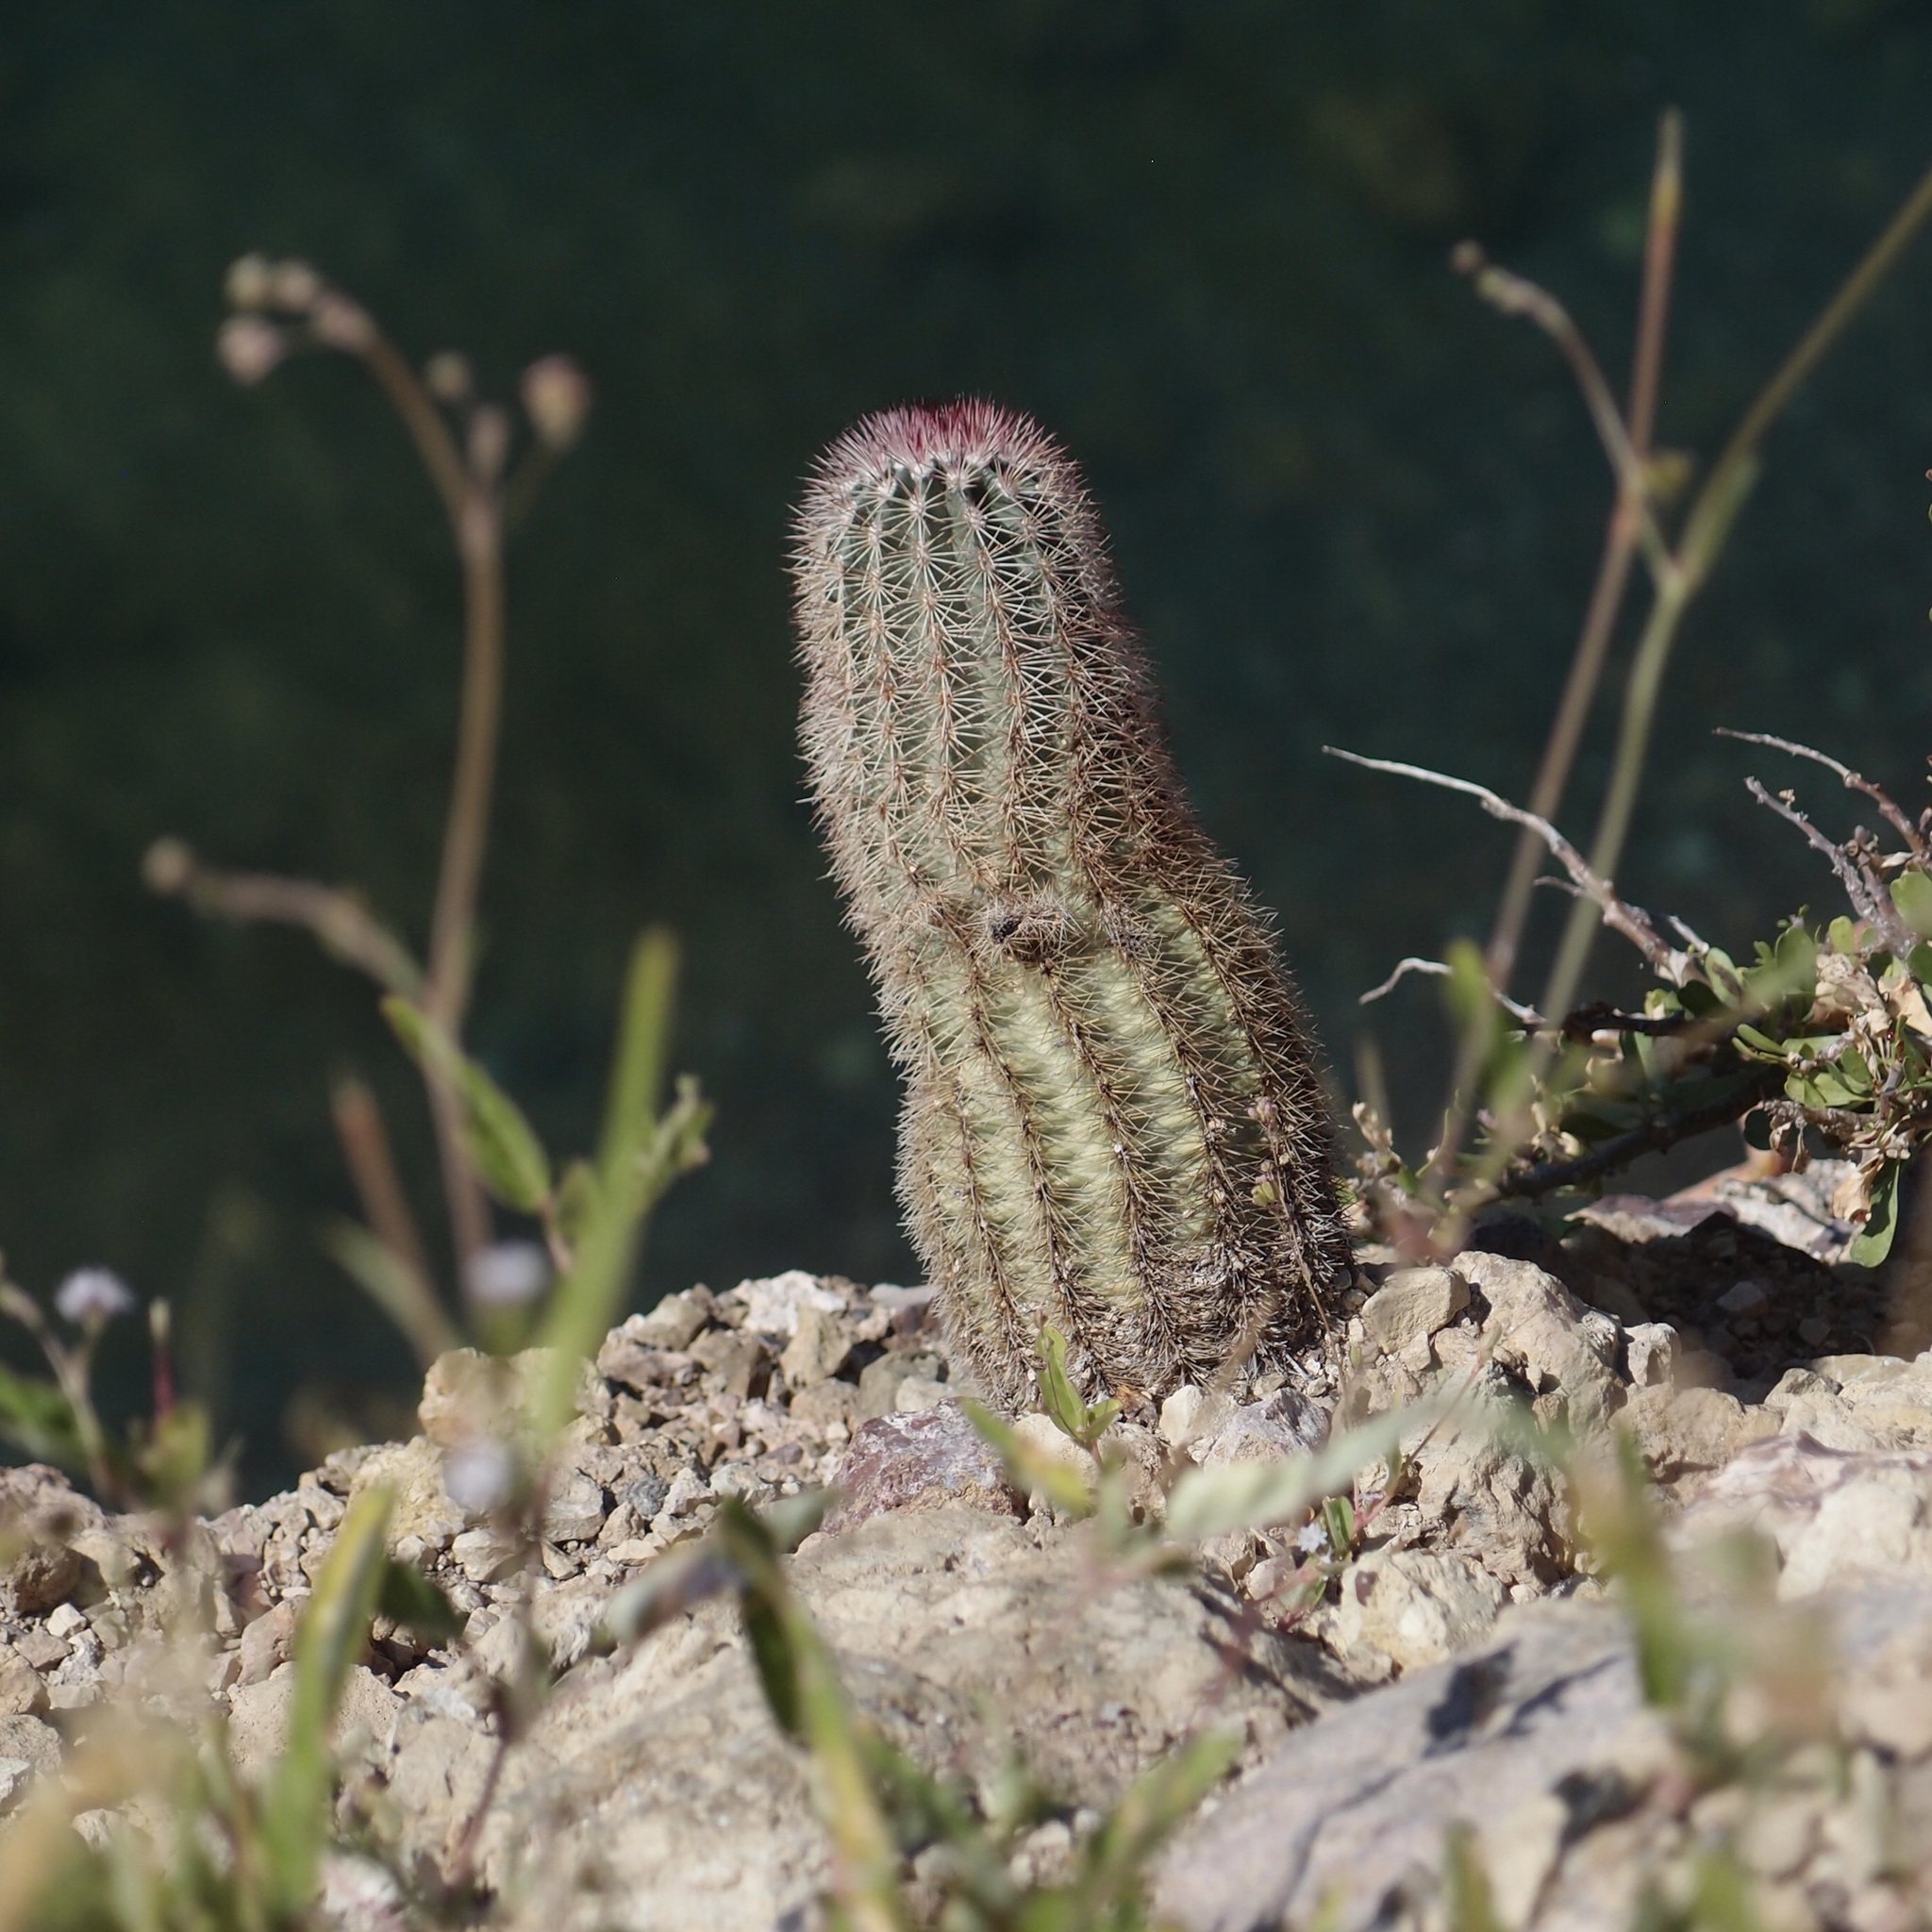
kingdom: Plantae
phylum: Tracheophyta
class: Magnoliopsida
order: Caryophyllales
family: Cactaceae
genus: Echinocereus
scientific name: Echinocereus scopulorum
